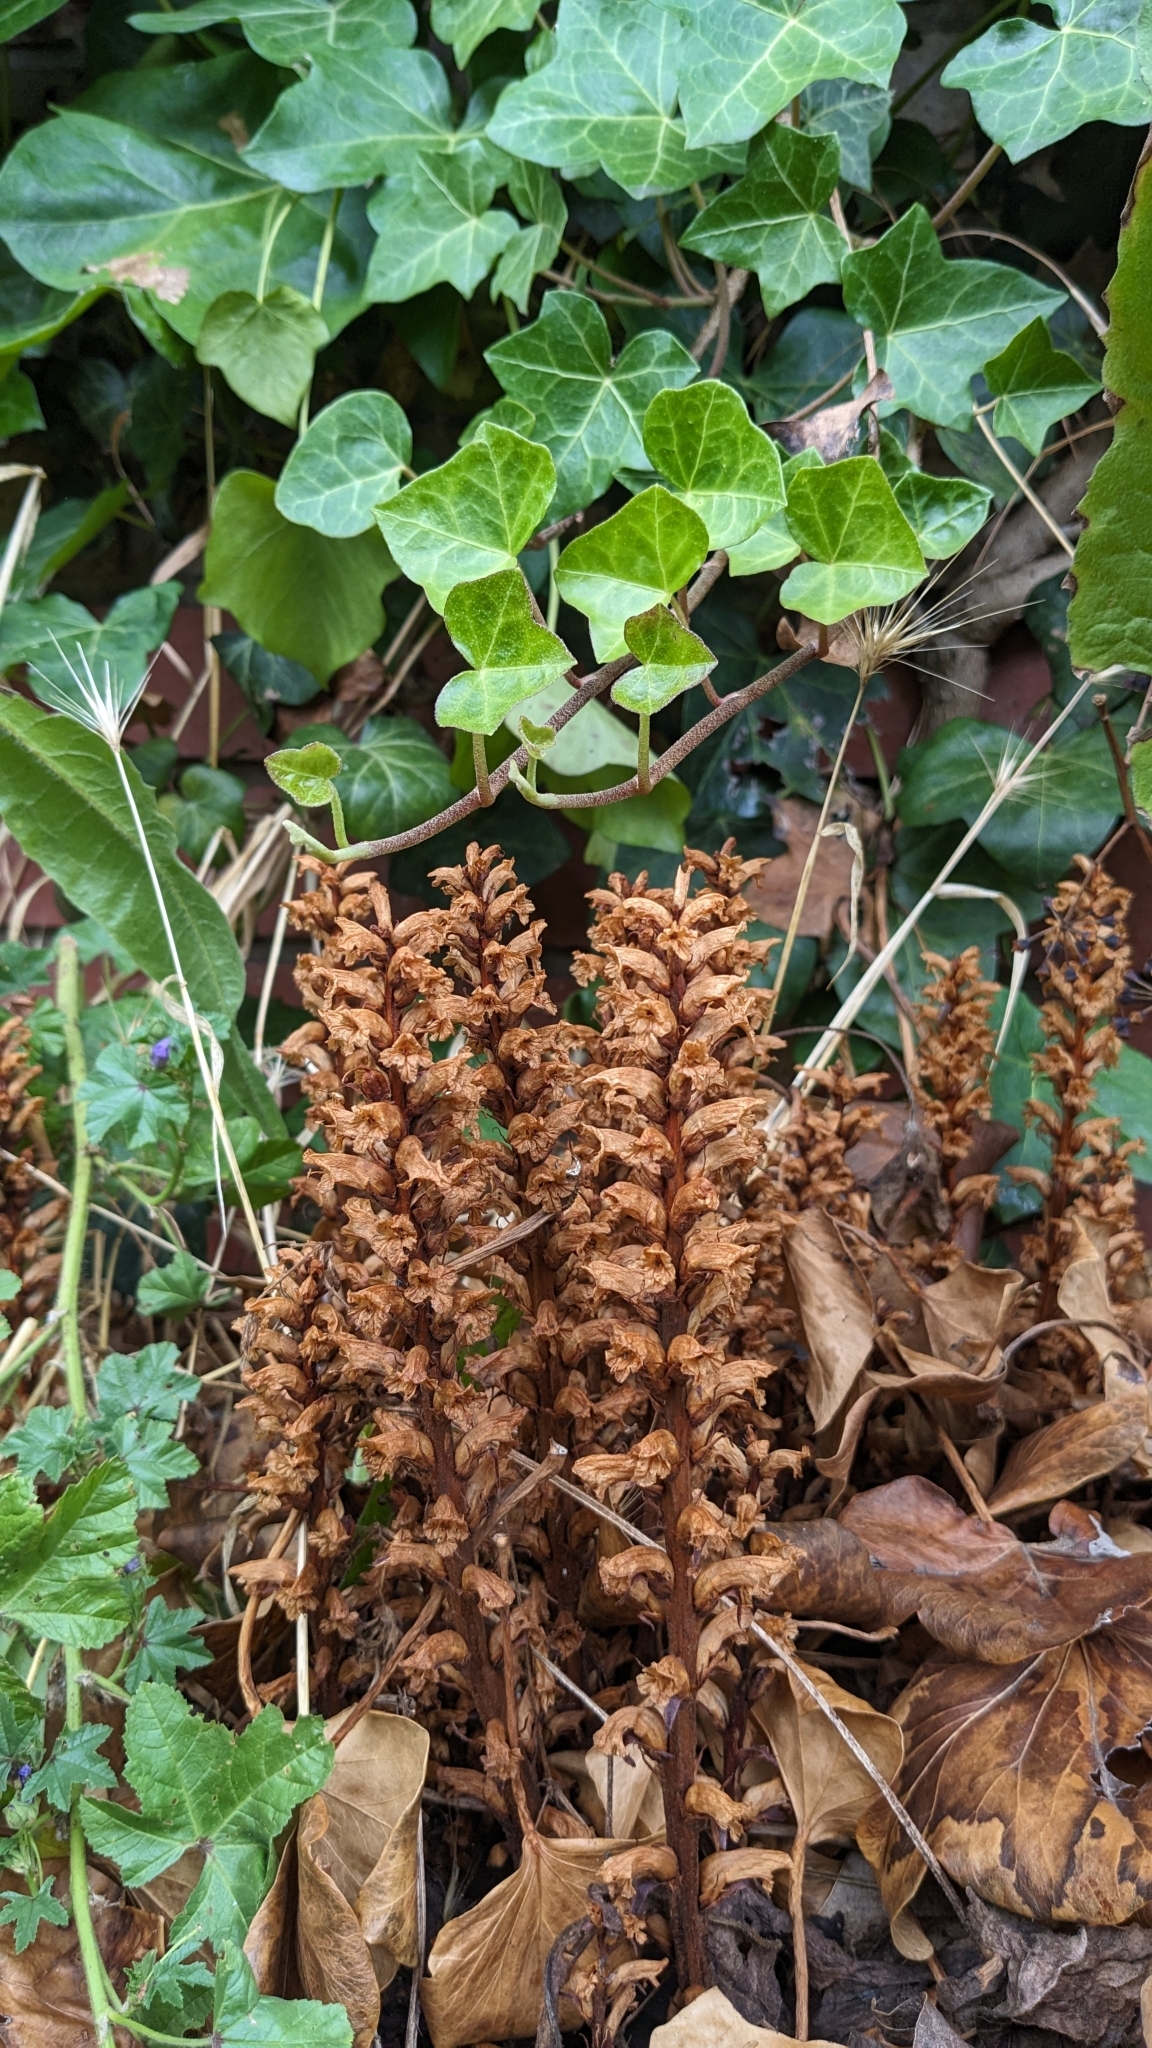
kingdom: Plantae
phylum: Tracheophyta
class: Magnoliopsida
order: Lamiales
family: Orobanchaceae
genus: Orobanche
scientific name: Orobanche hederae
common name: Ivy broomrape
